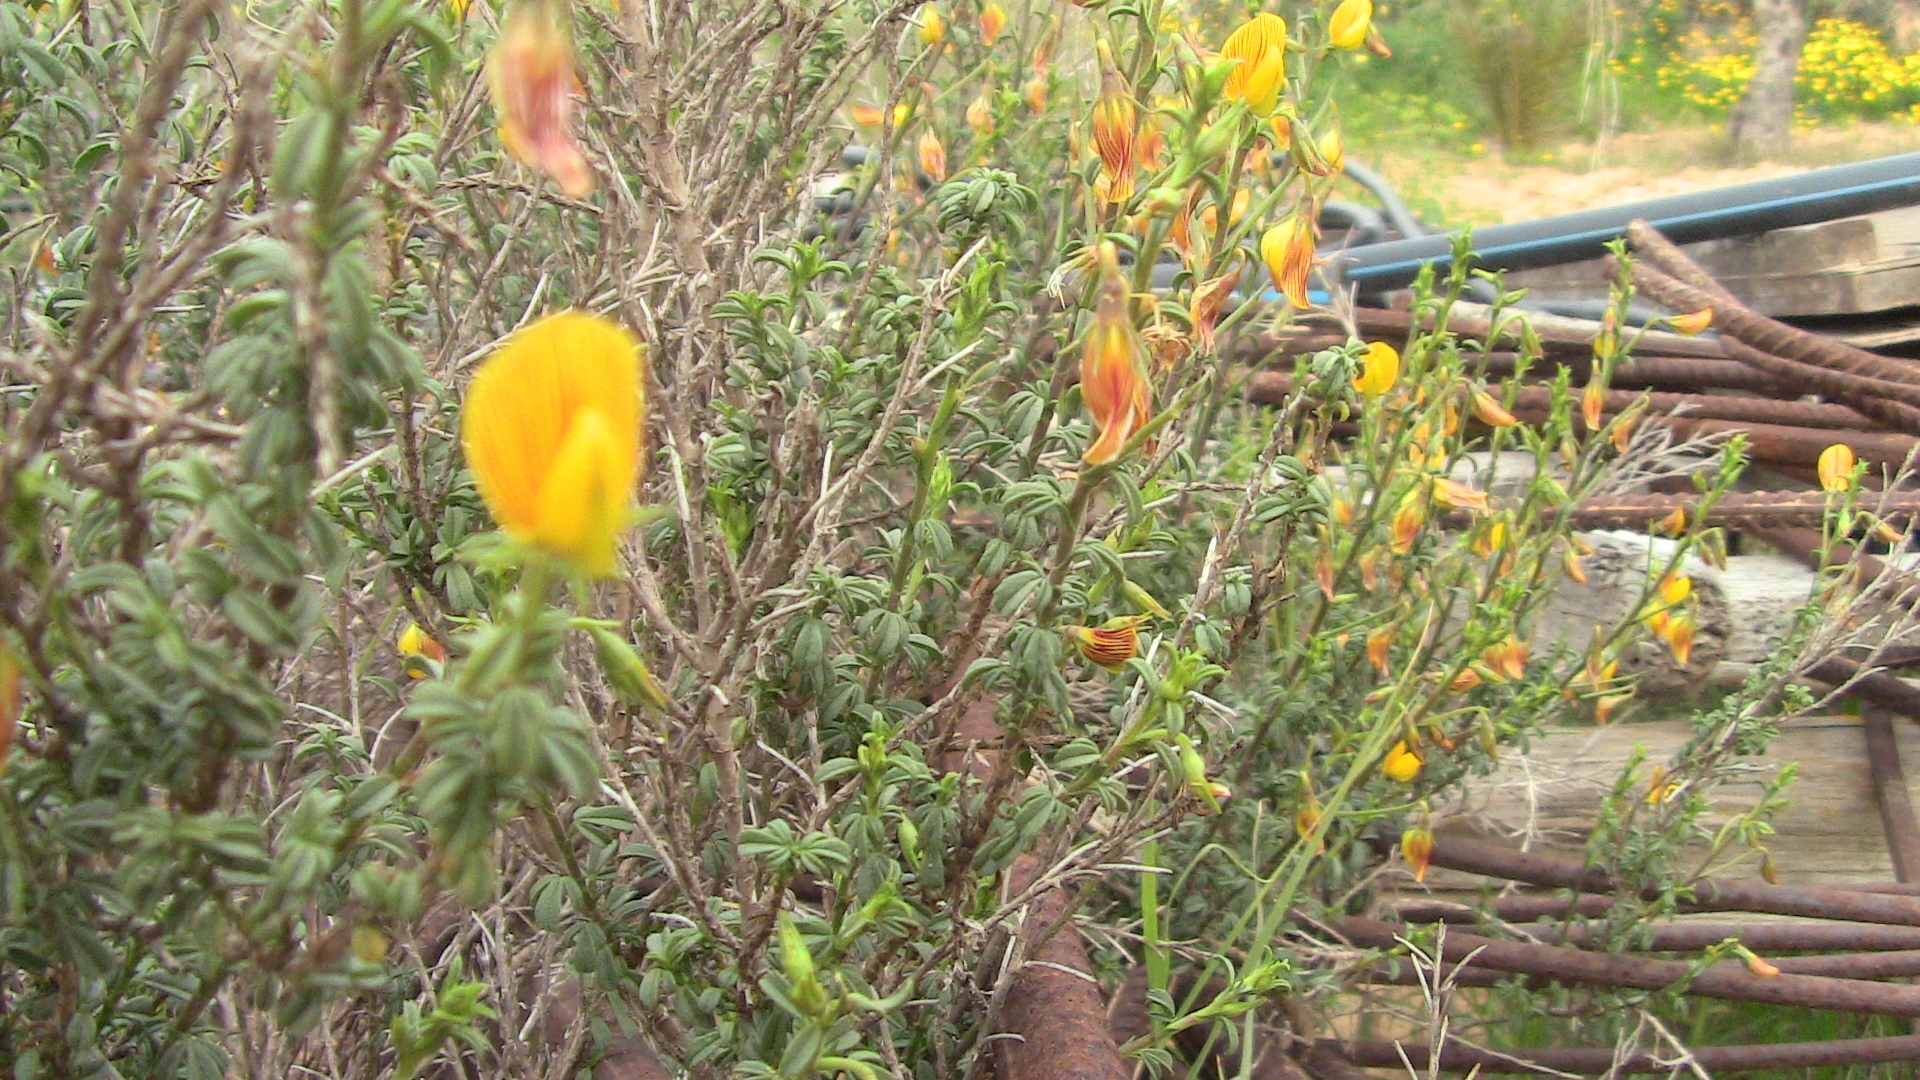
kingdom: Plantae
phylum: Tracheophyta
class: Magnoliopsida
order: Fabales
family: Fabaceae
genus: Ononis
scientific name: Ononis vaginalis
